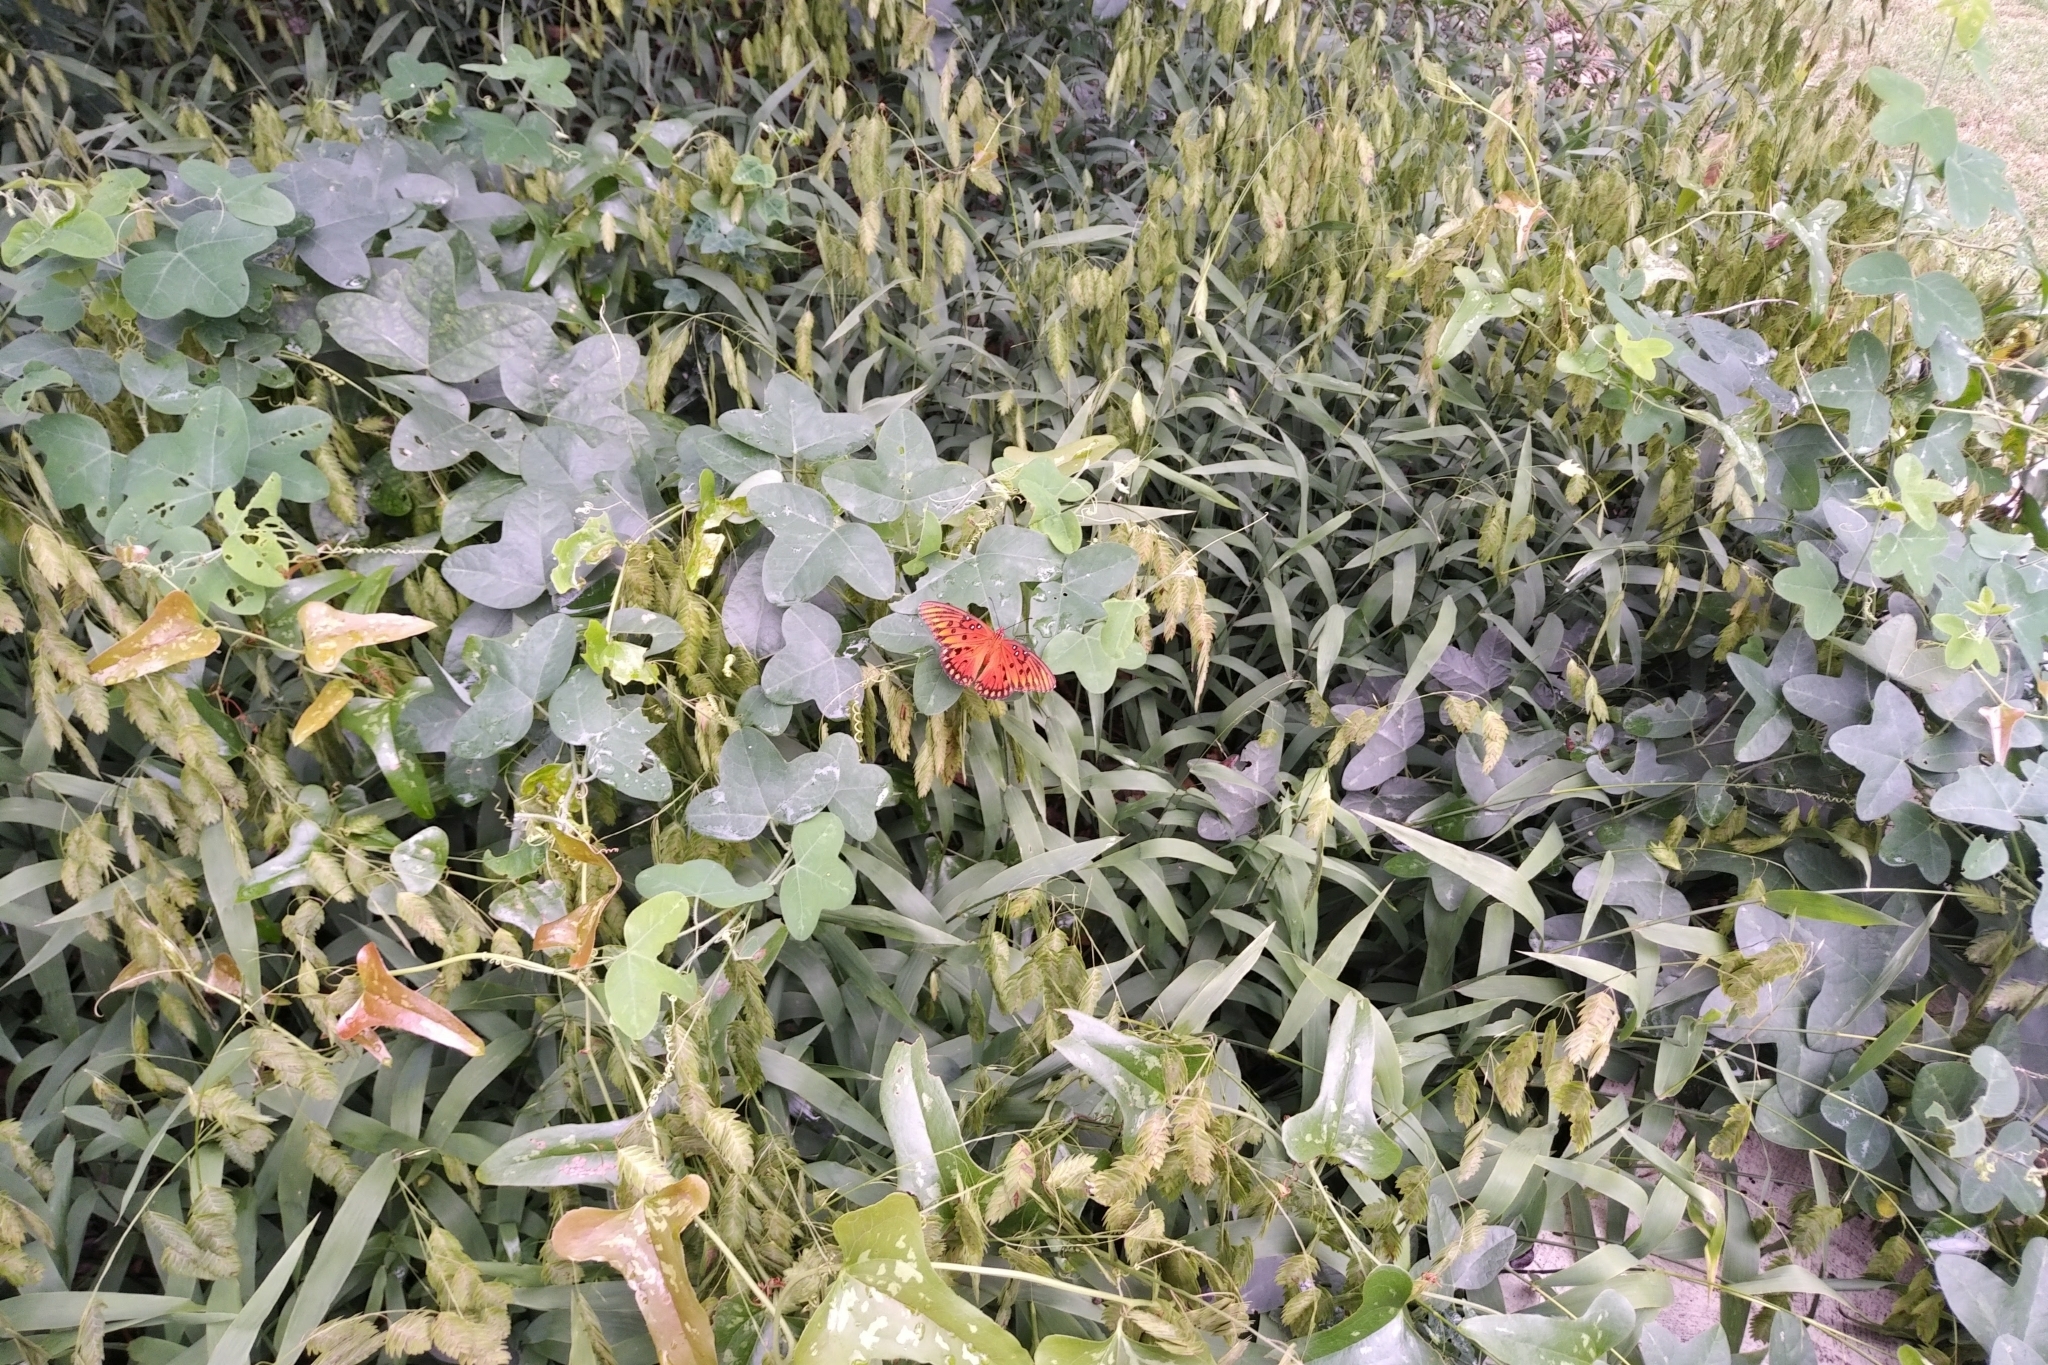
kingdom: Animalia
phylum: Arthropoda
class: Insecta
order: Lepidoptera
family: Nymphalidae
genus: Dione
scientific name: Dione vanillae
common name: Gulf fritillary
